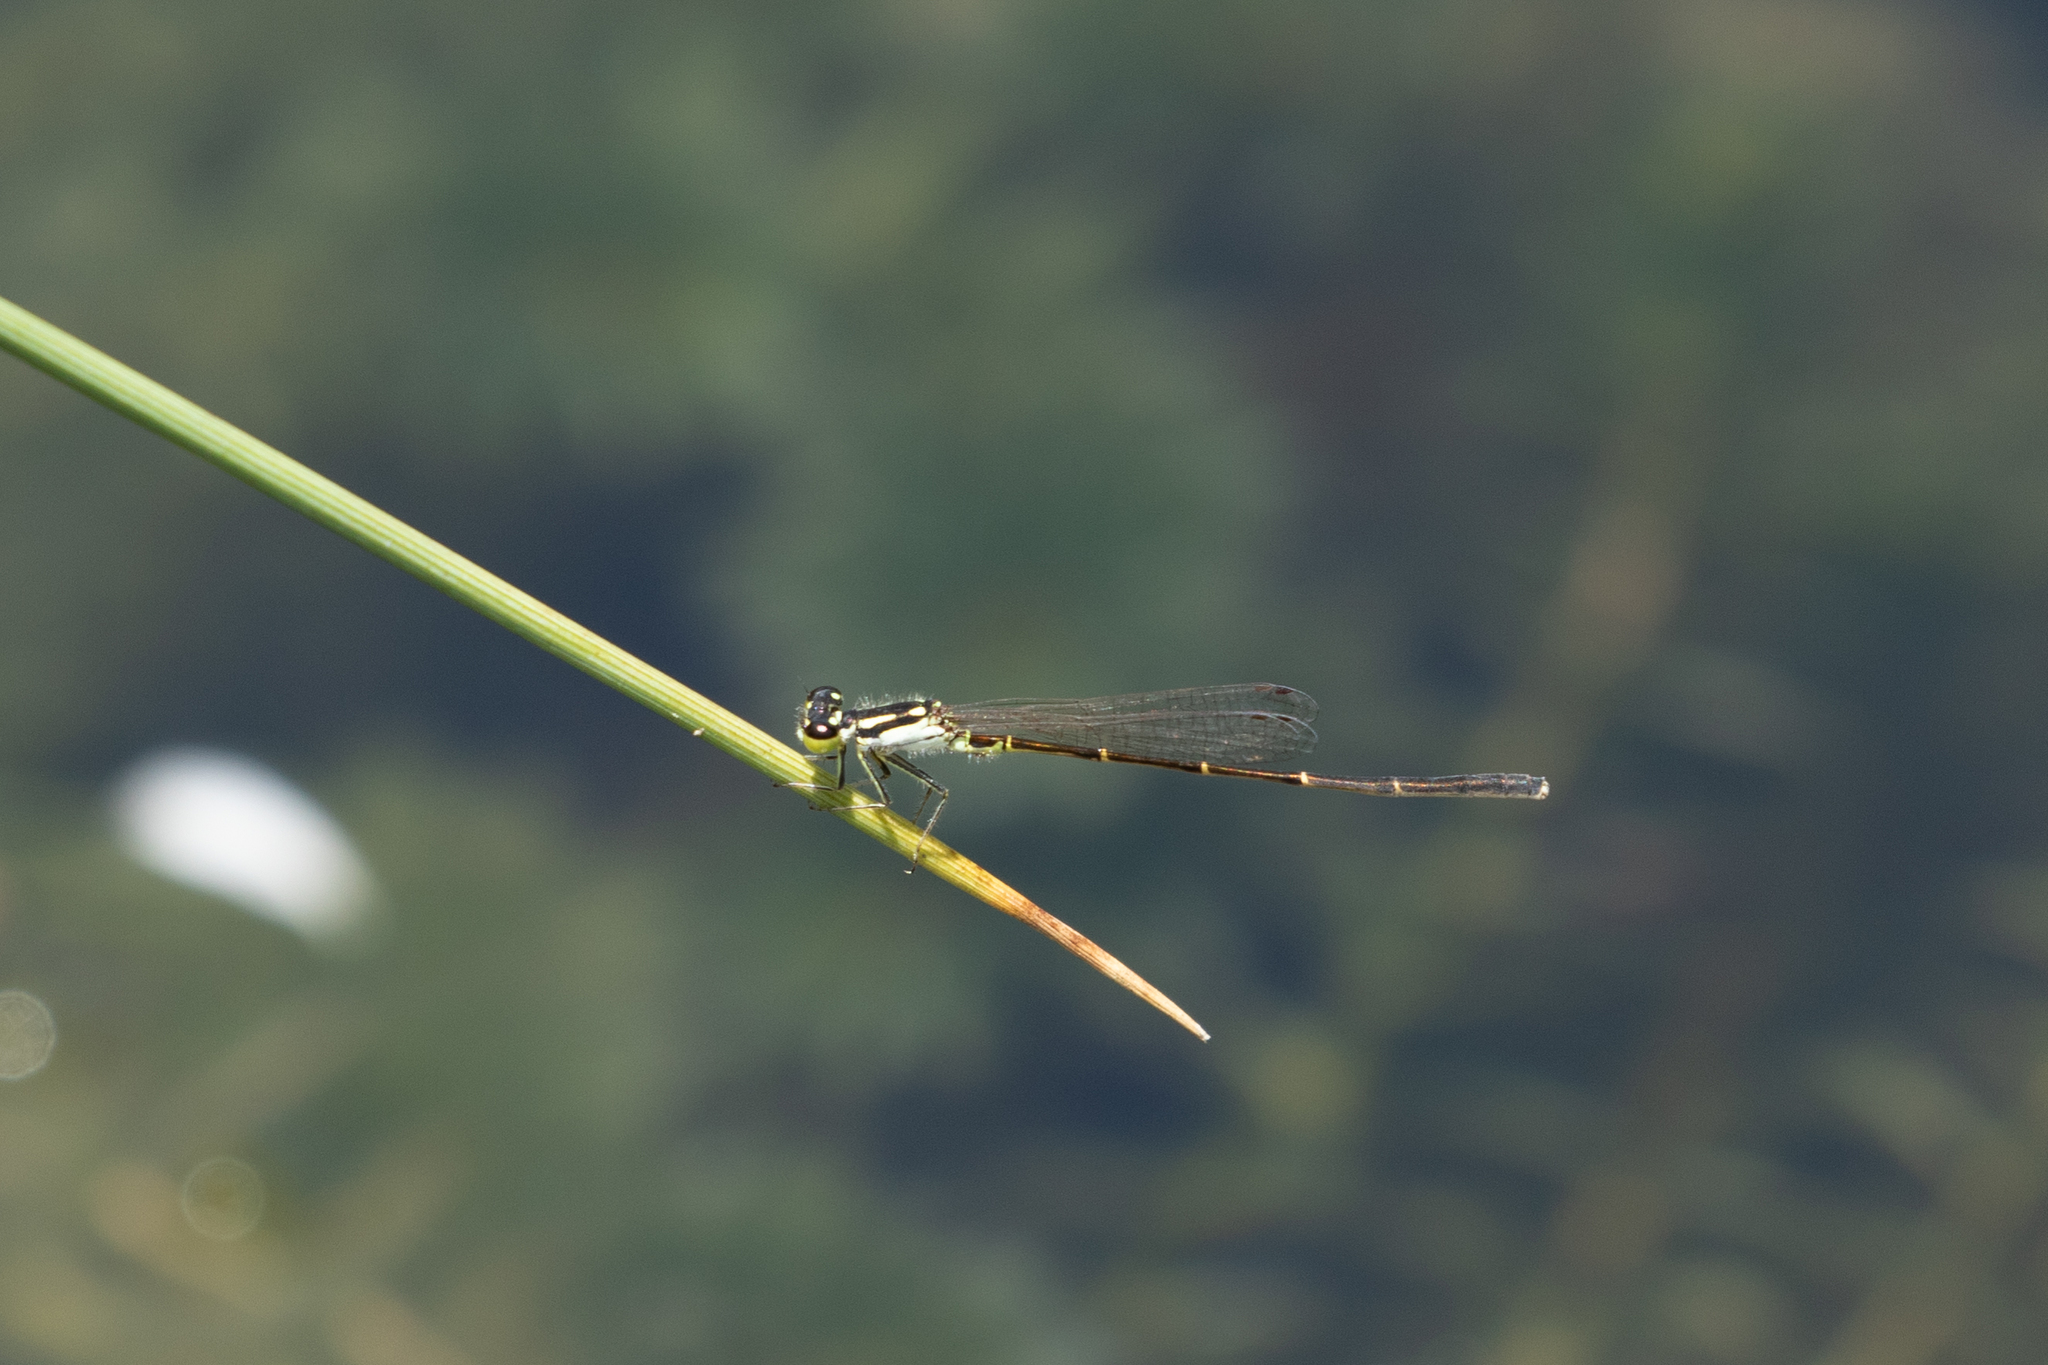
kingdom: Animalia
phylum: Arthropoda
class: Insecta
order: Odonata
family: Coenagrionidae
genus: Ischnura
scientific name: Ischnura posita
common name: Fragile forktail
